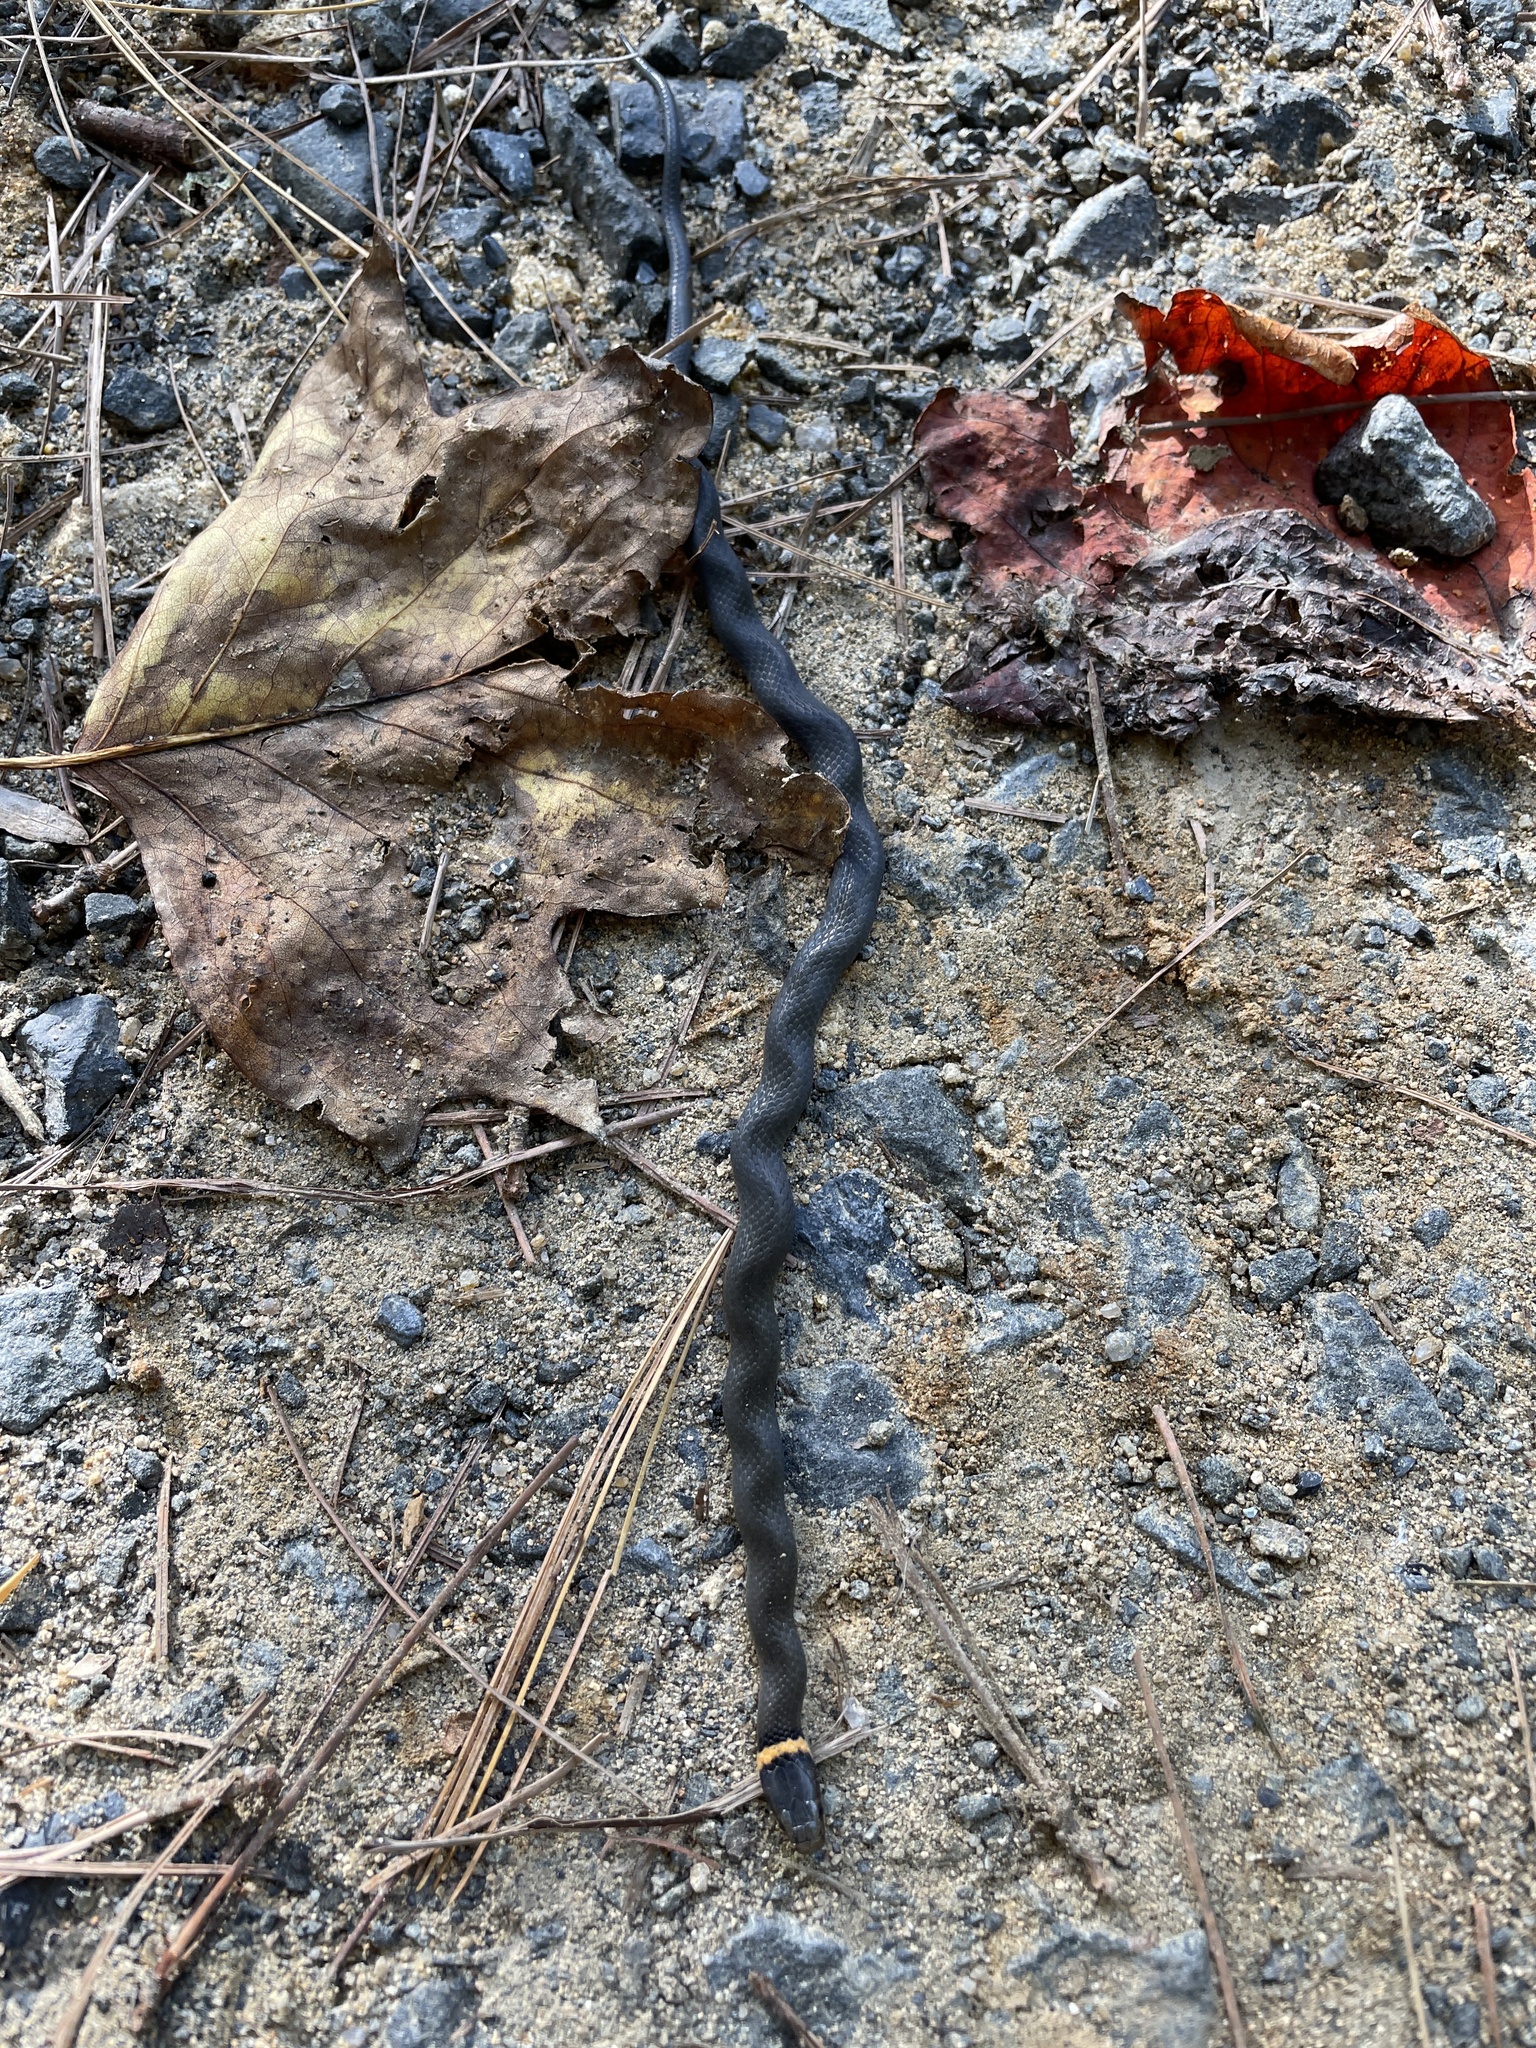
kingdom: Animalia
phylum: Chordata
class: Squamata
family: Colubridae
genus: Diadophis
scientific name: Diadophis punctatus
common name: Ringneck snake
